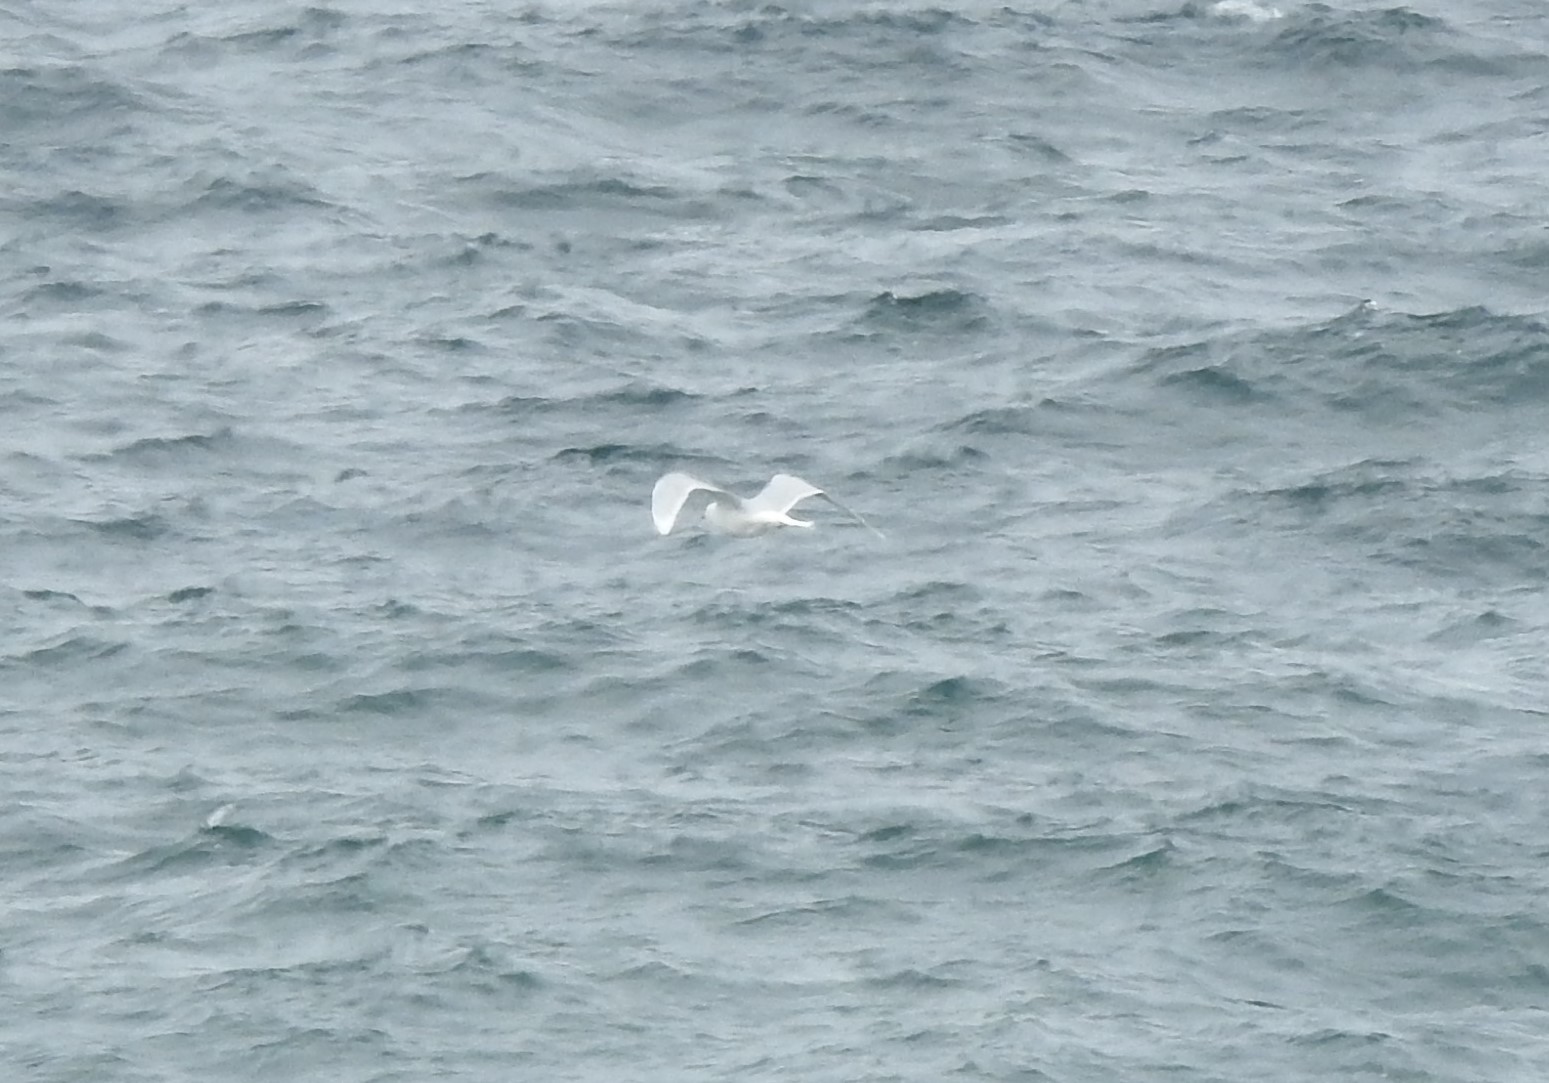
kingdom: Animalia
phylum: Chordata
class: Aves
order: Charadriiformes
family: Laridae
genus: Larus
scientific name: Larus hyperboreus
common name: Glaucous gull
